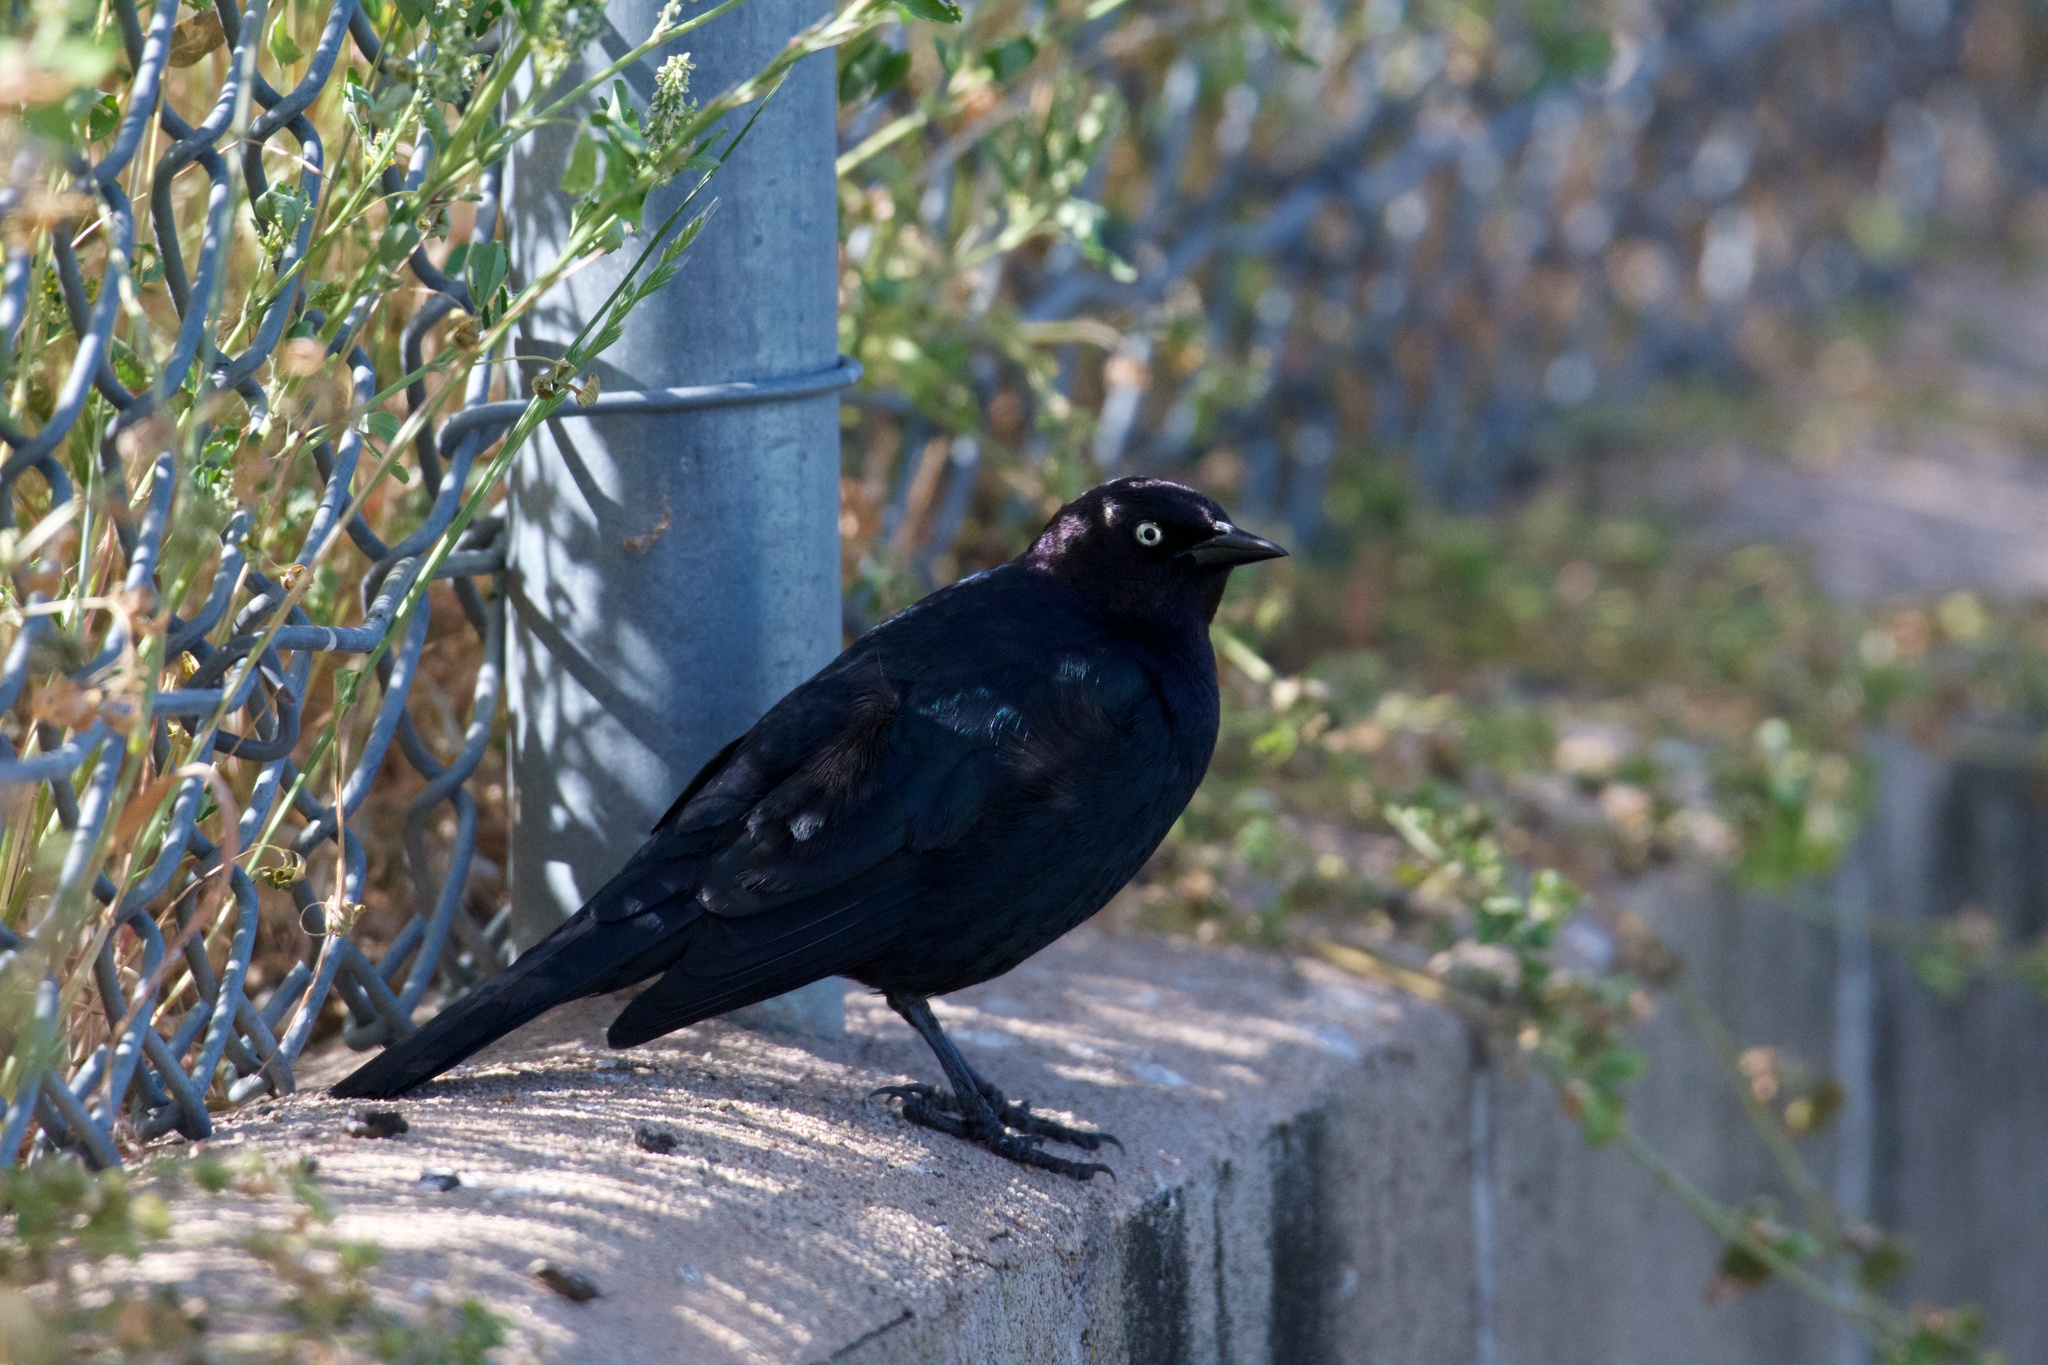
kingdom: Animalia
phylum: Chordata
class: Aves
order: Passeriformes
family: Icteridae
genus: Euphagus
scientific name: Euphagus cyanocephalus
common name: Brewer's blackbird
